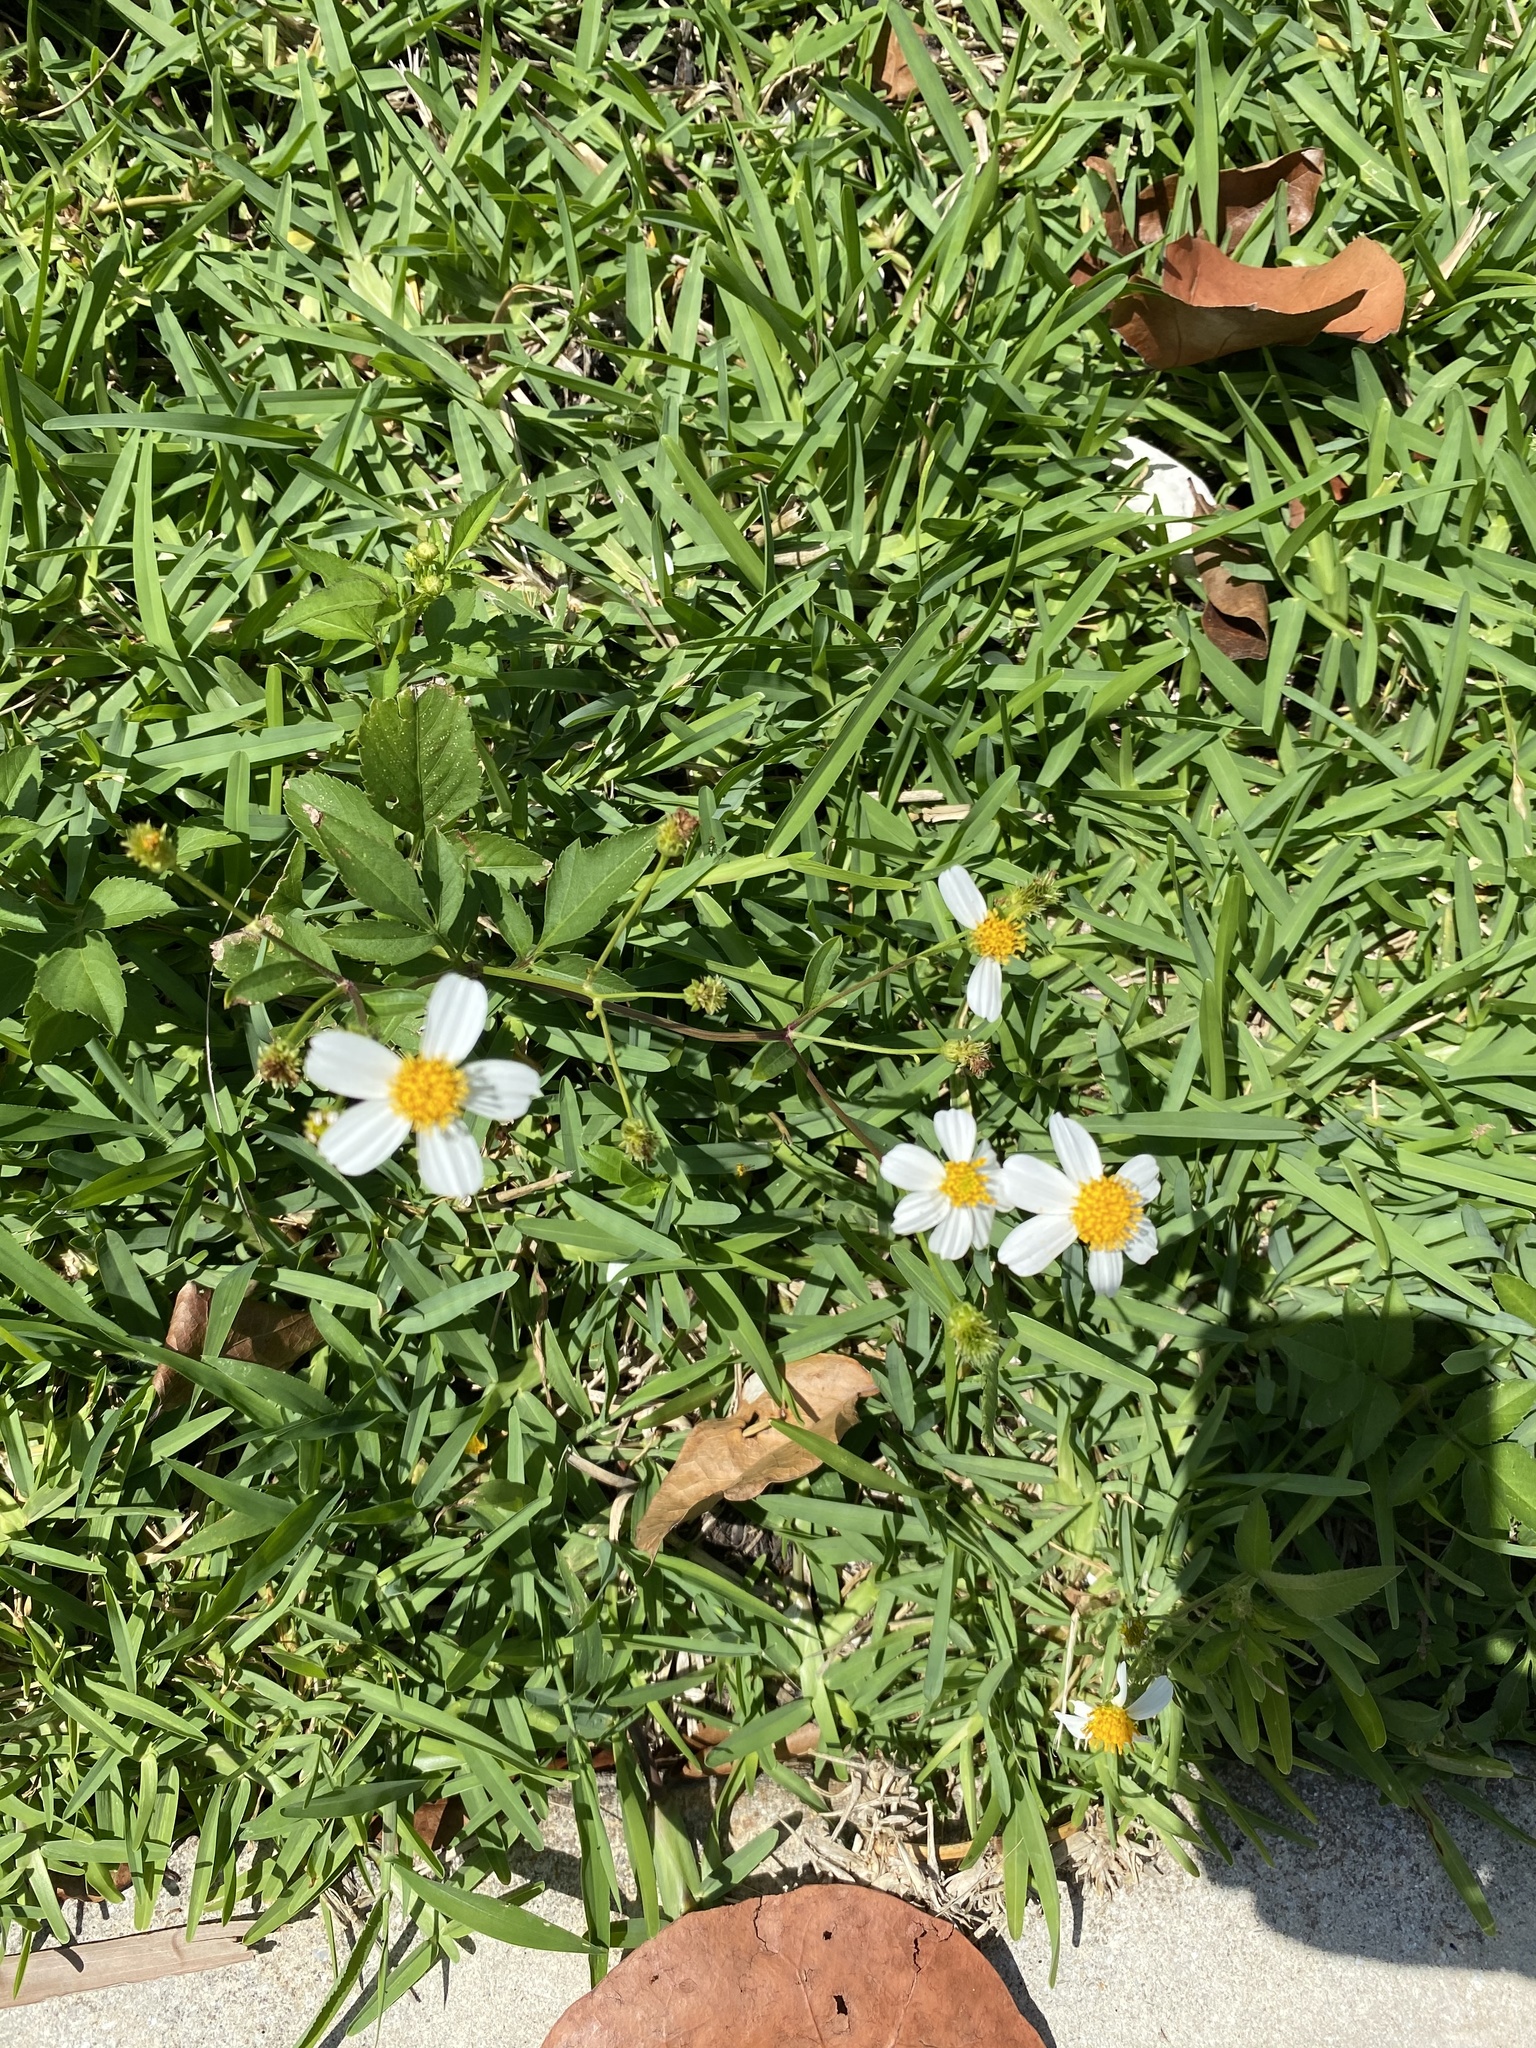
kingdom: Plantae
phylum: Tracheophyta
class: Magnoliopsida
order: Asterales
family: Asteraceae
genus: Bidens
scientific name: Bidens alba
